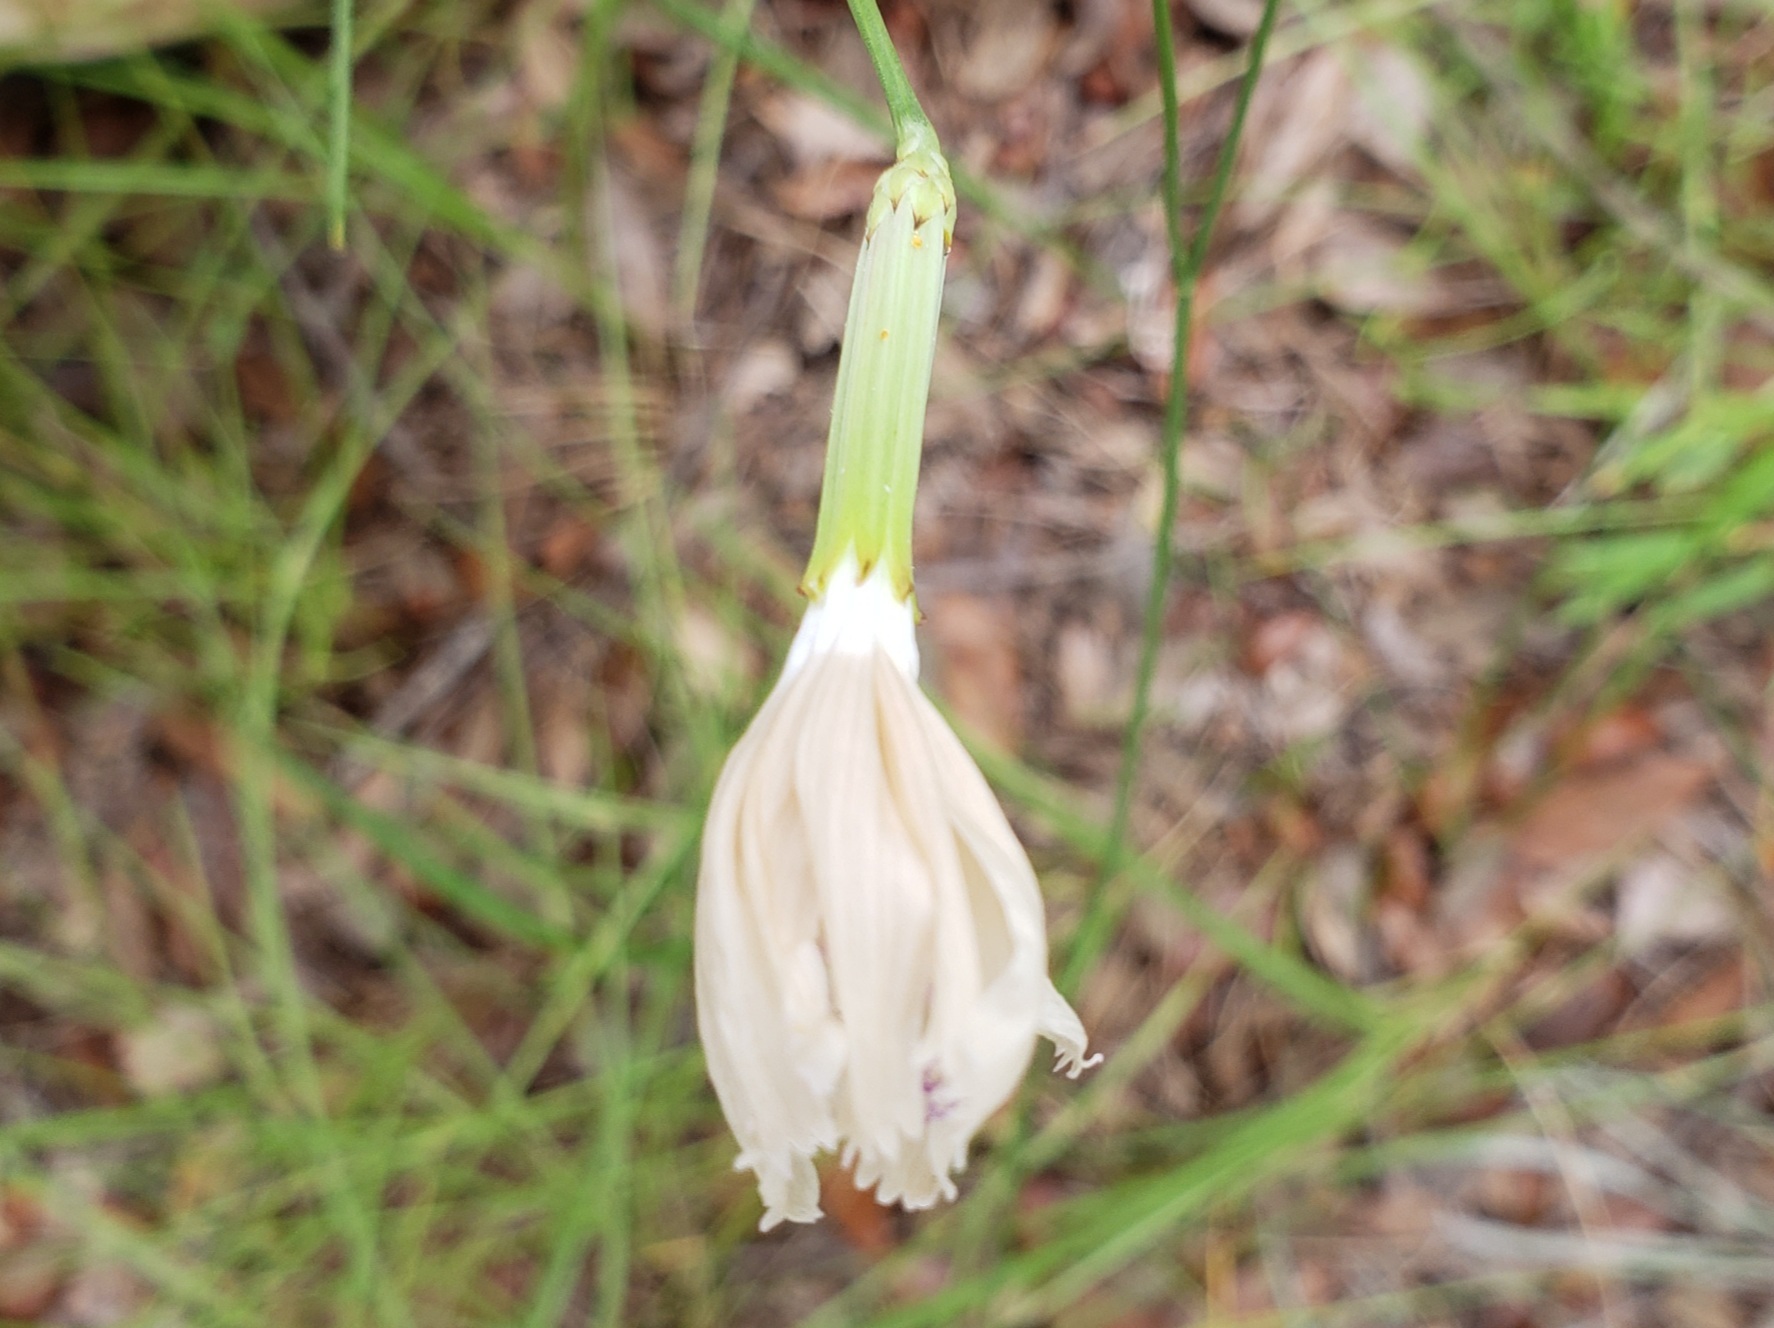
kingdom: Plantae
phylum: Tracheophyta
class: Magnoliopsida
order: Gentianales
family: Rubiaceae
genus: Hexasepalum
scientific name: Hexasepalum teres
